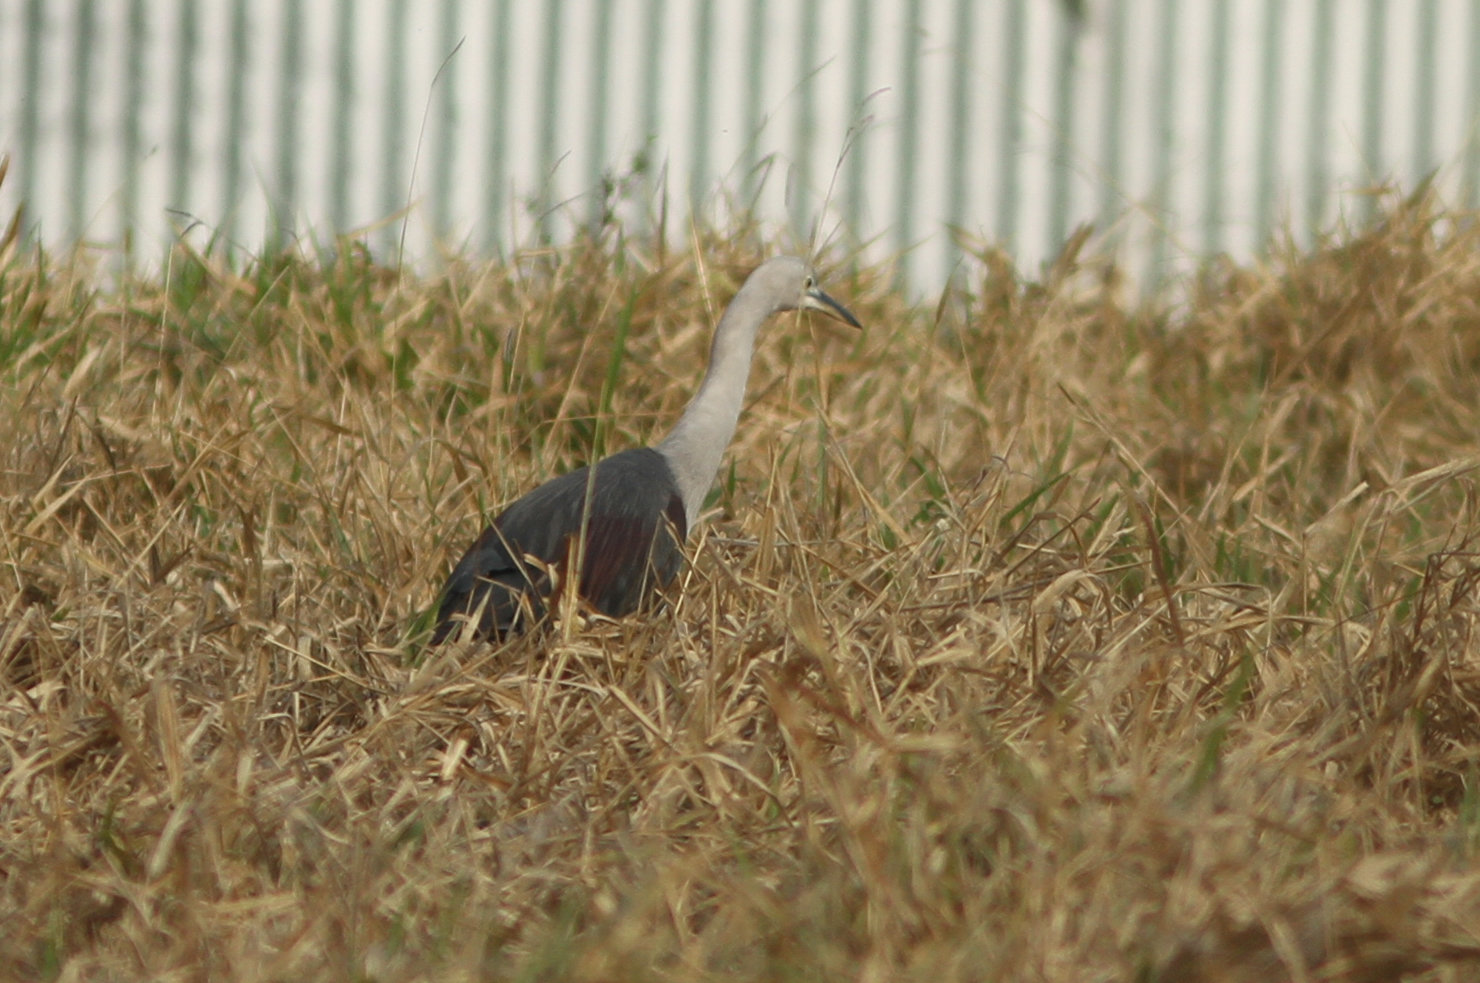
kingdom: Animalia
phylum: Chordata
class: Aves
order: Pelecaniformes
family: Ardeidae
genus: Ardea
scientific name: Ardea pacifica
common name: White-necked heron
